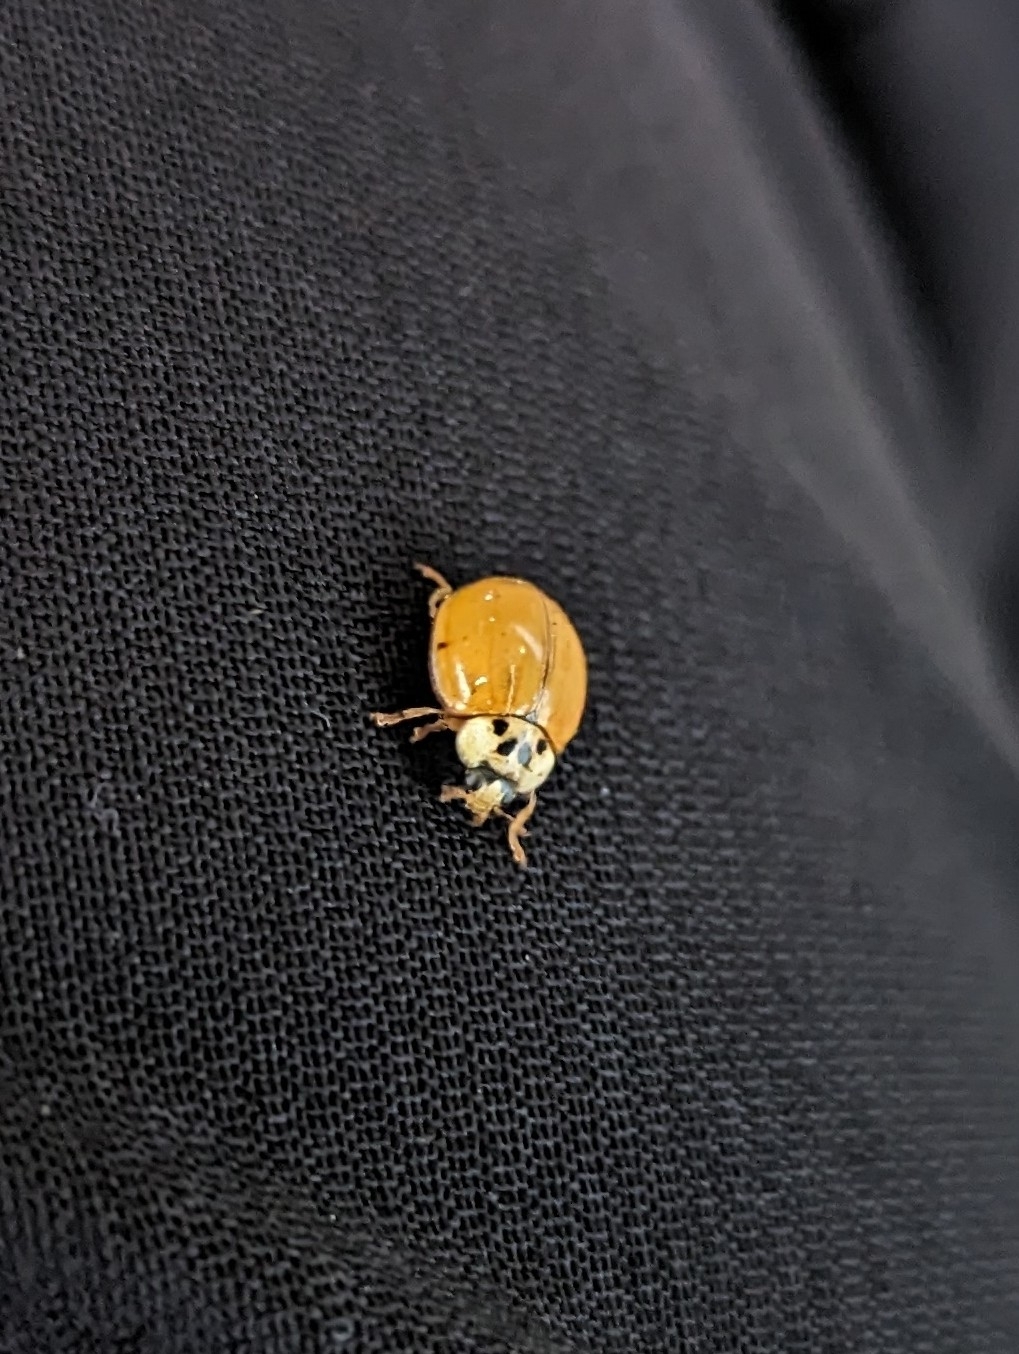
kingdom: Animalia
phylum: Arthropoda
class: Insecta
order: Coleoptera
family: Coccinellidae
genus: Harmonia
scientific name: Harmonia axyridis
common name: Harlequin ladybird
